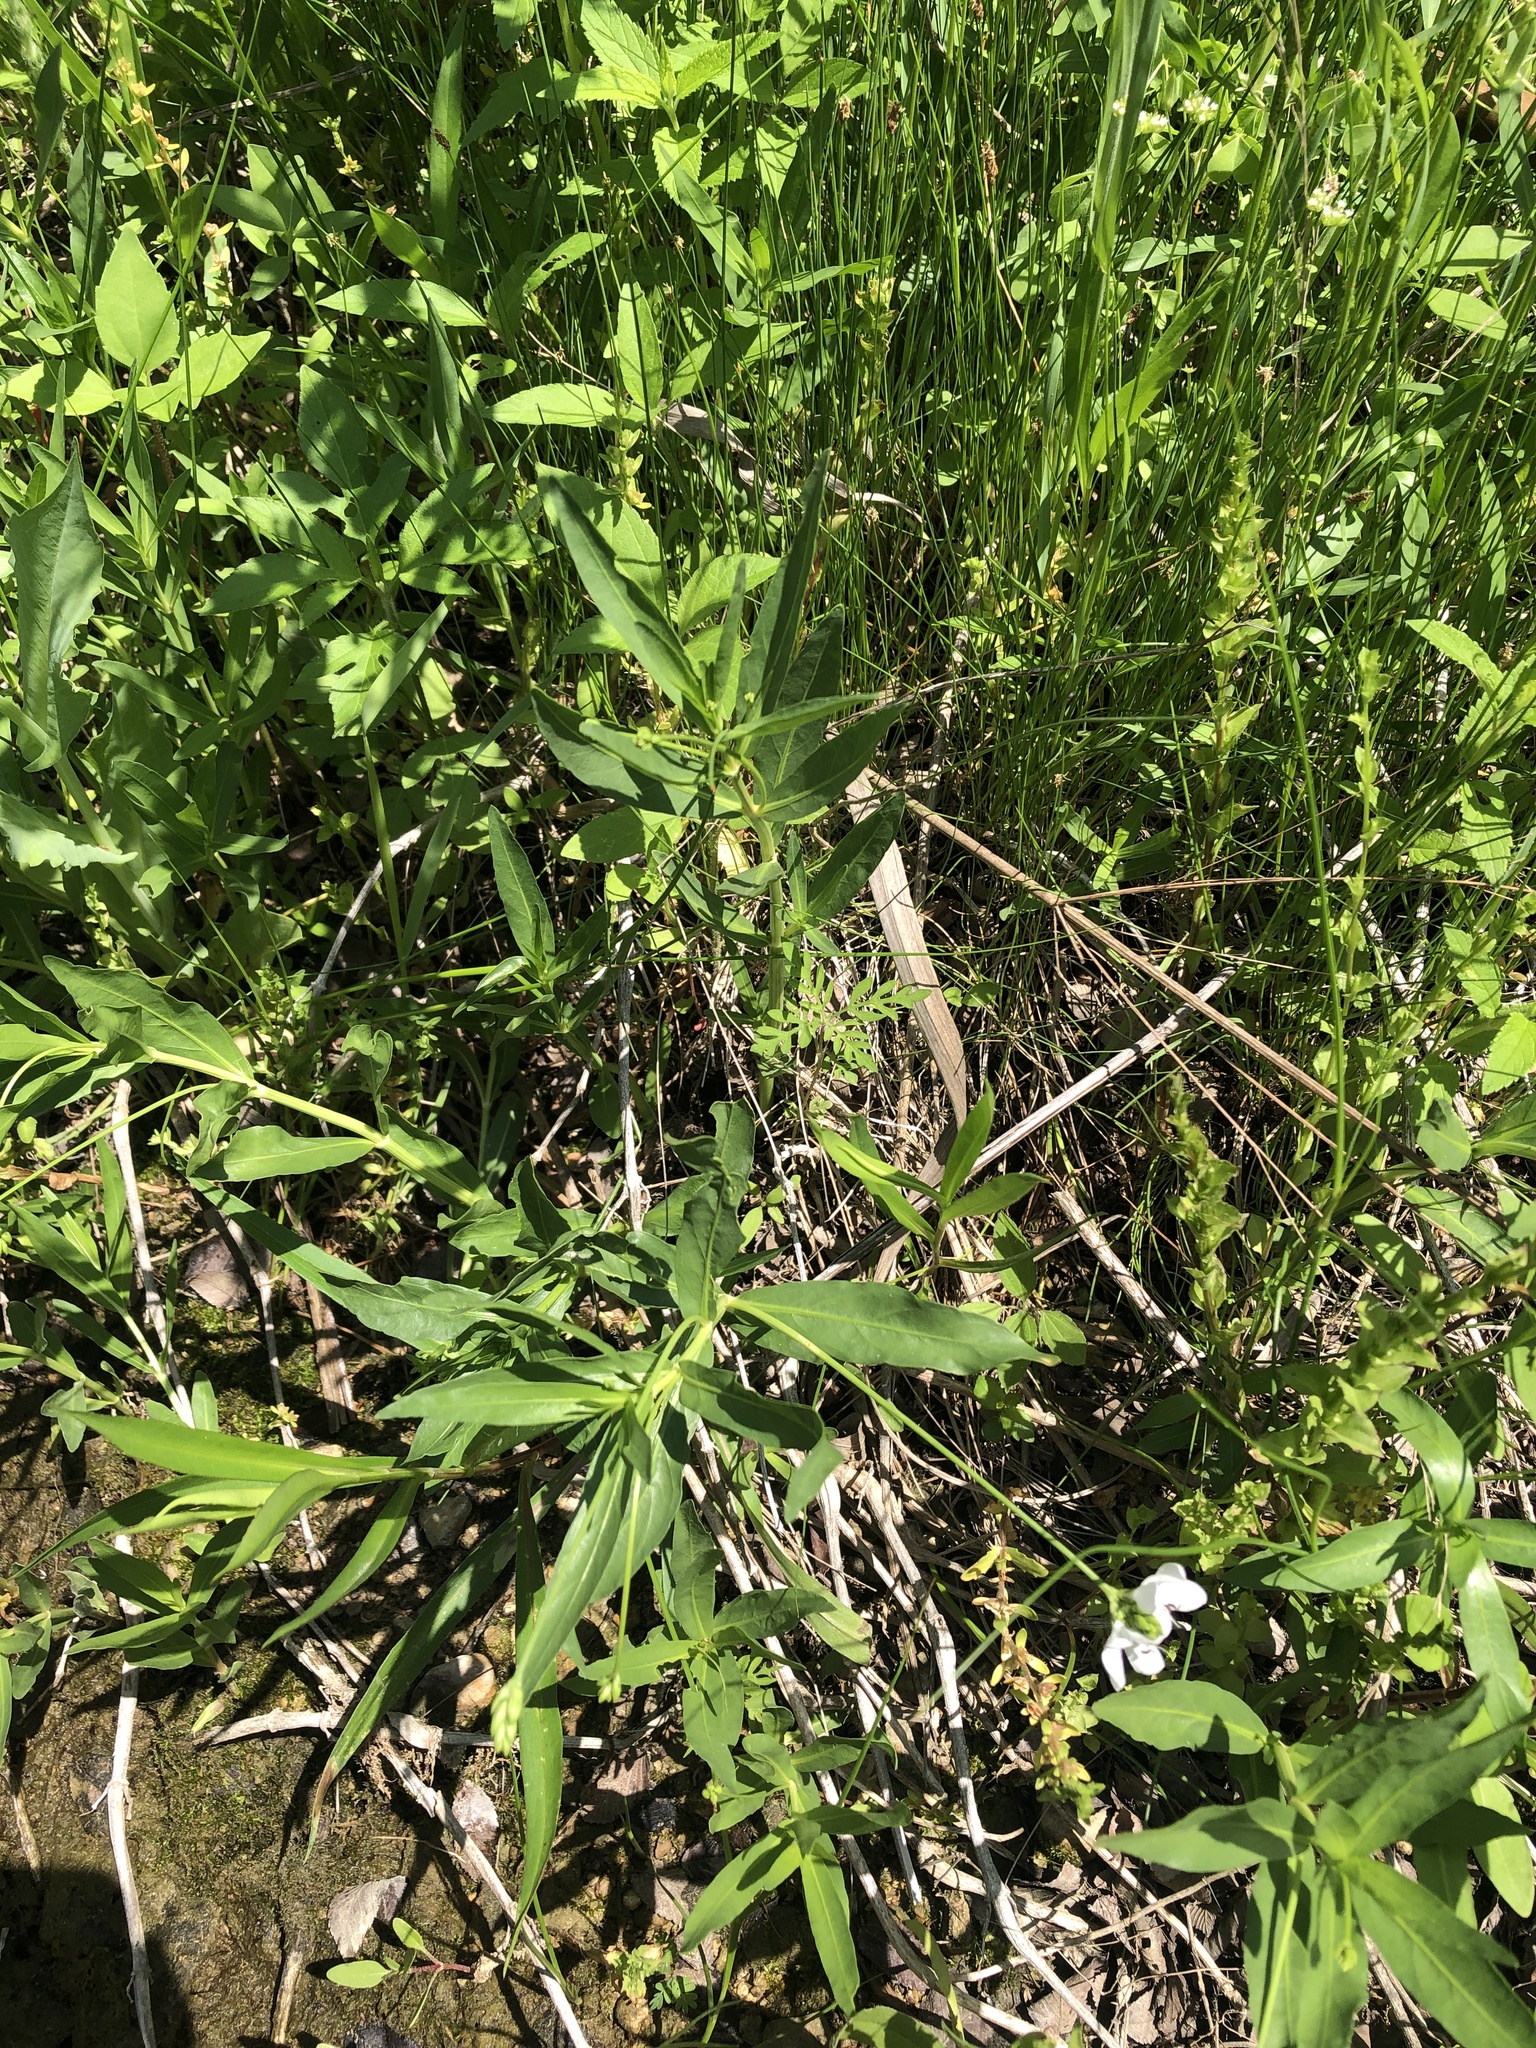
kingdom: Plantae
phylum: Tracheophyta
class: Magnoliopsida
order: Lamiales
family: Acanthaceae
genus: Dianthera
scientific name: Dianthera americana
